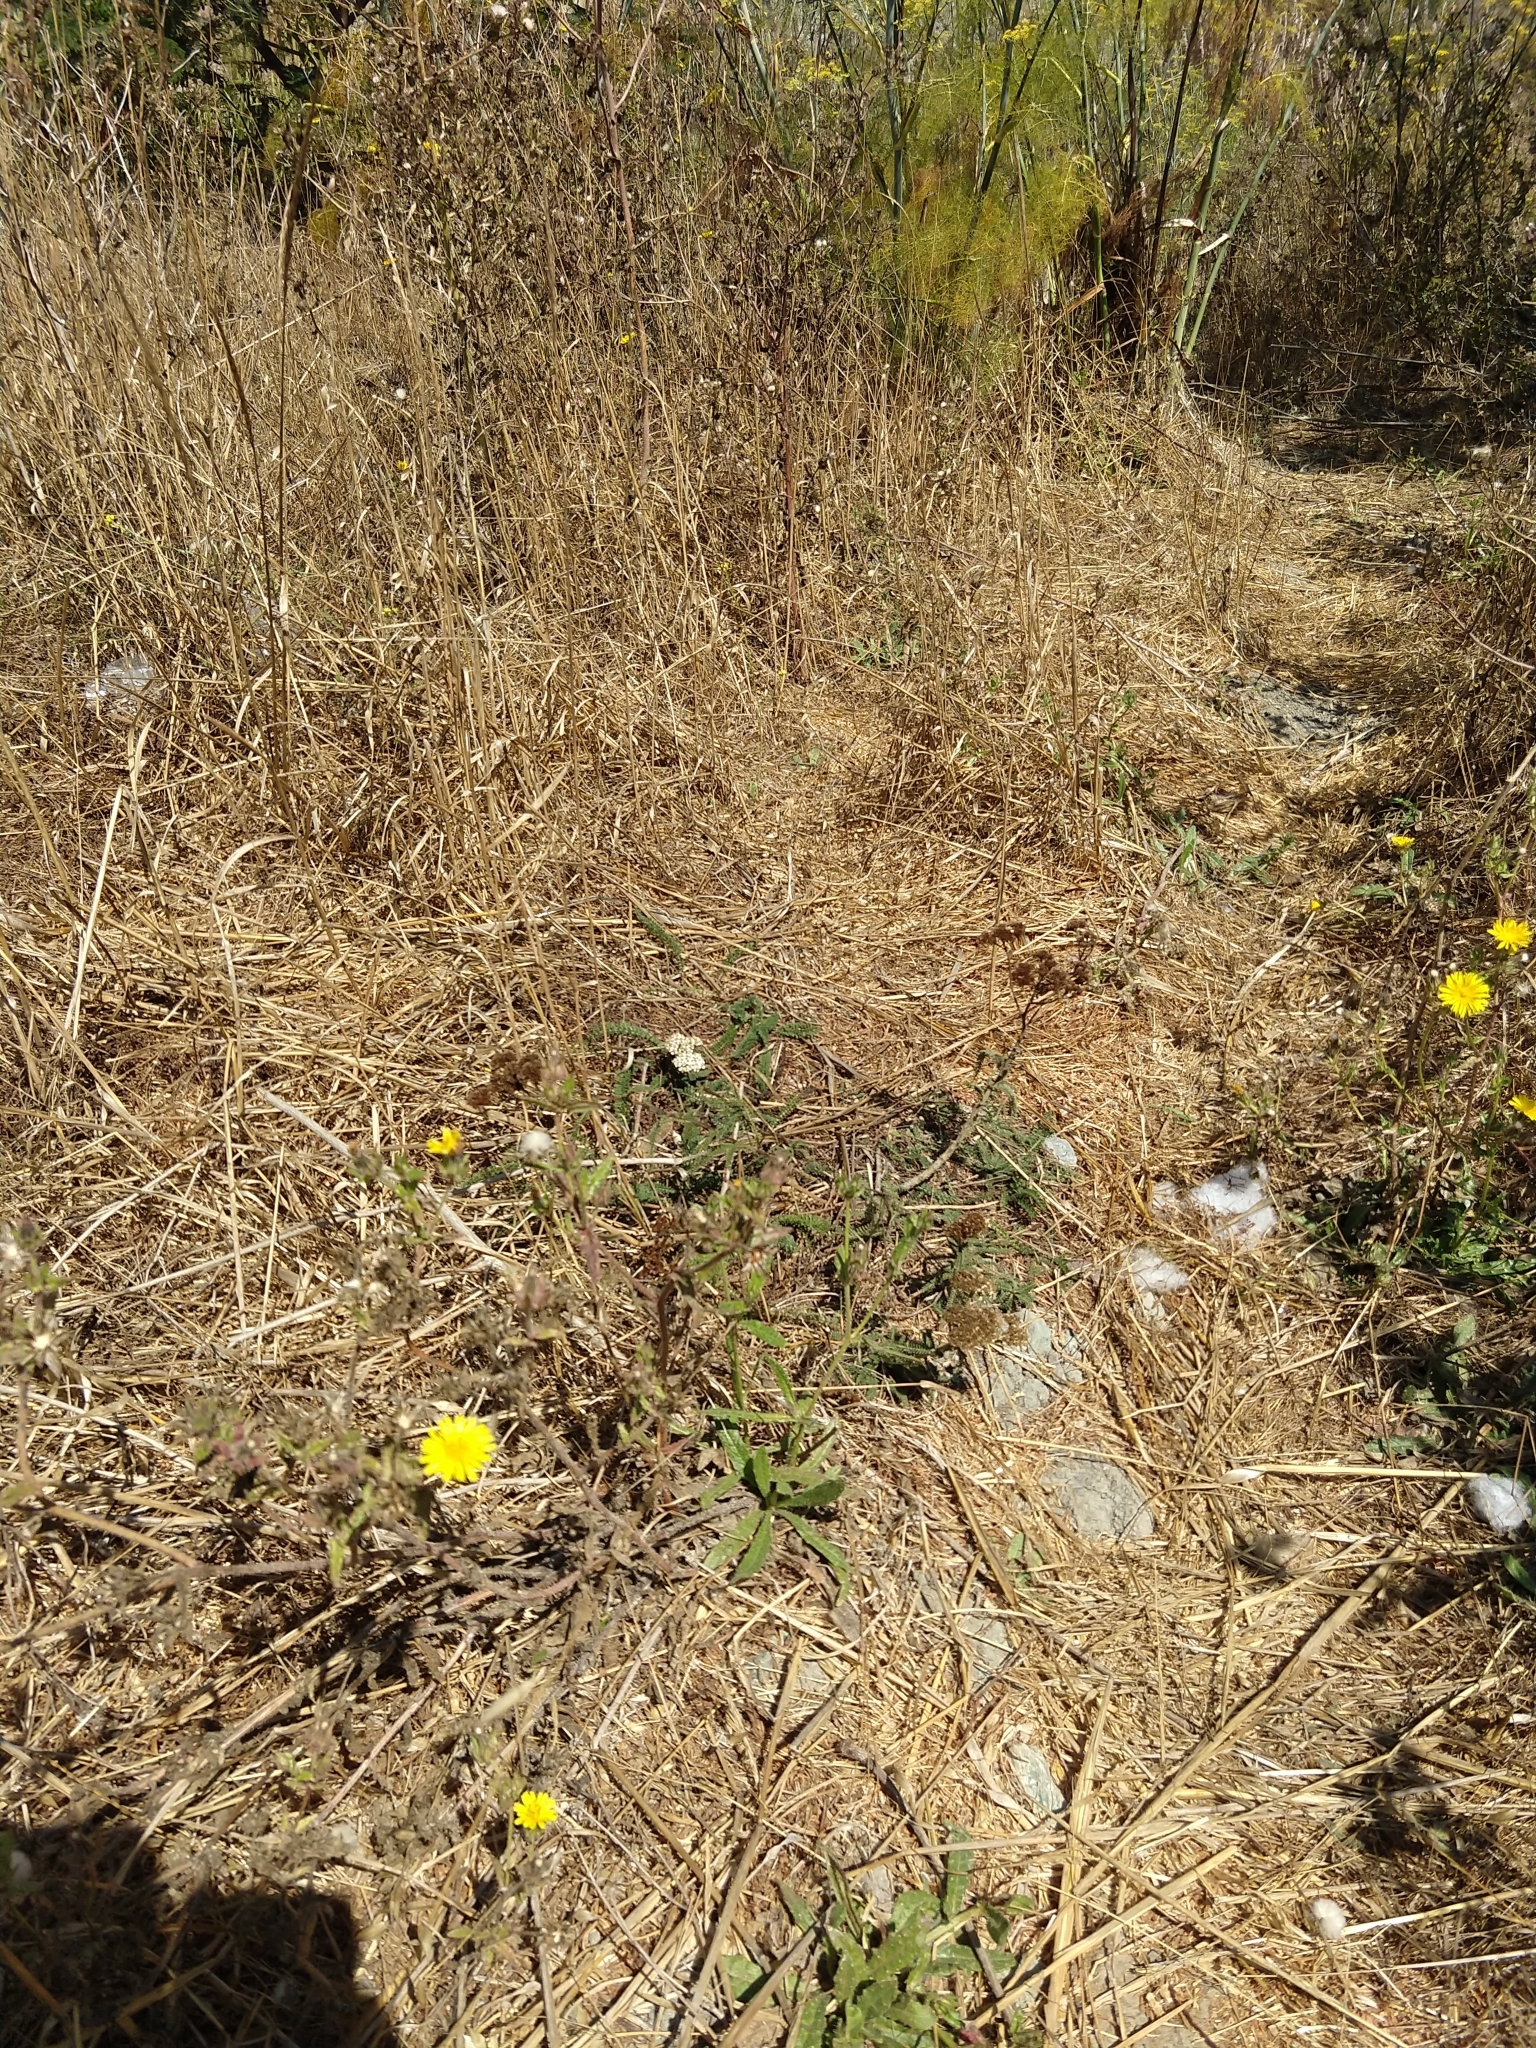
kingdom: Plantae
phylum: Tracheophyta
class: Magnoliopsida
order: Asterales
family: Asteraceae
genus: Achillea
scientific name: Achillea millefolium
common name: Yarrow
